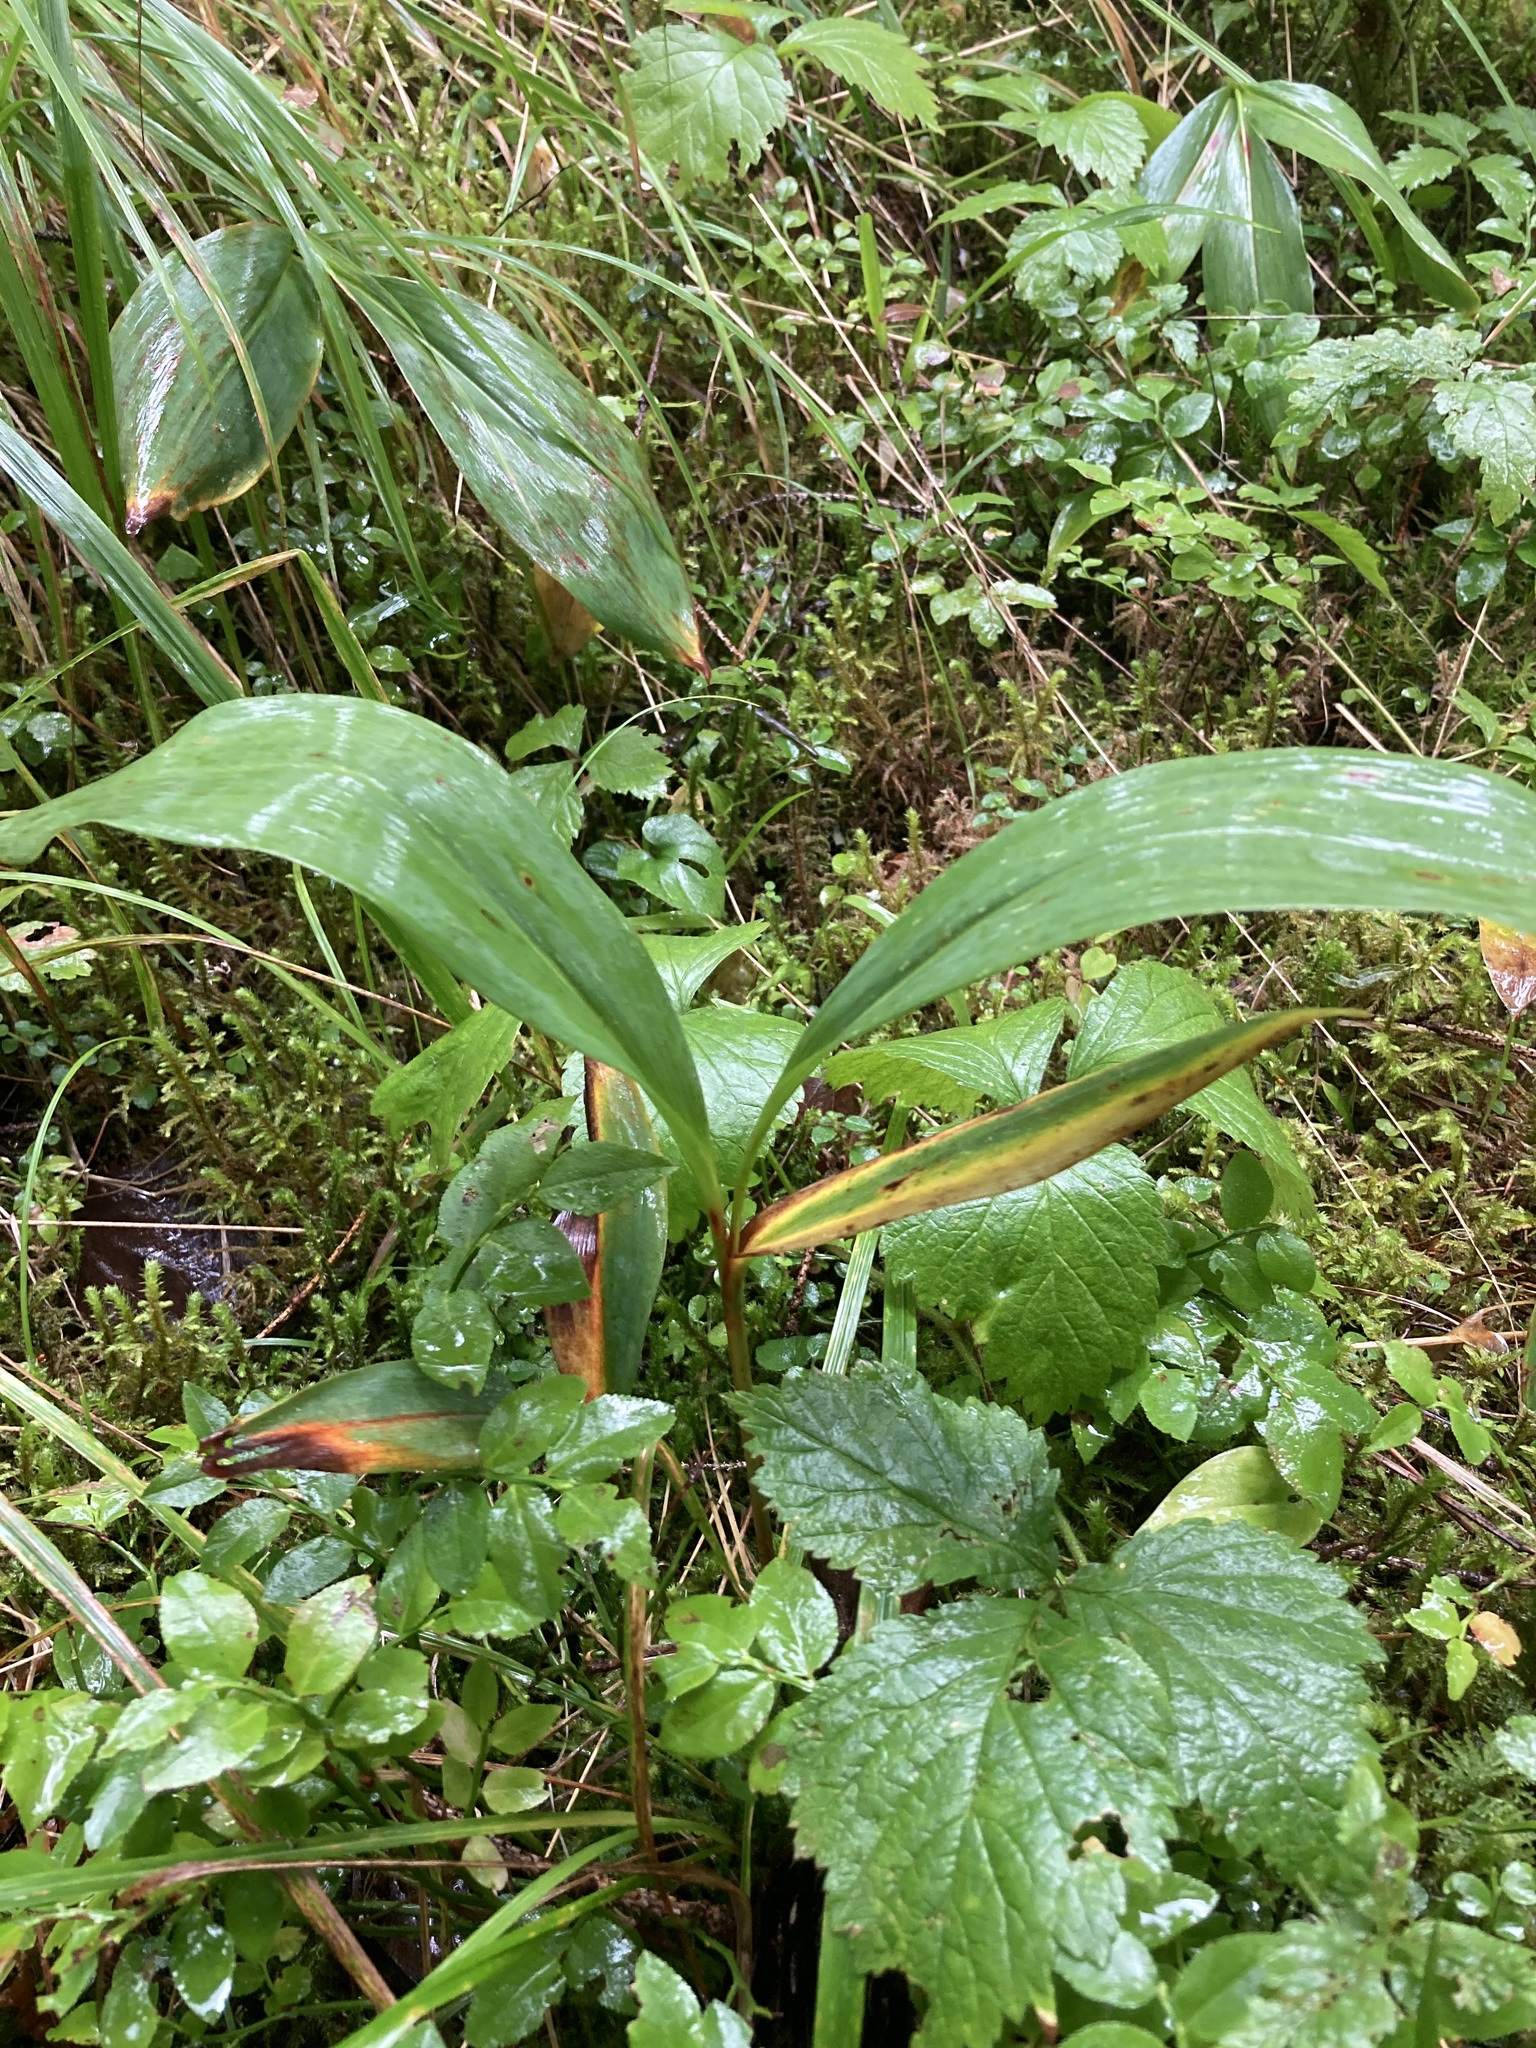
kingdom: Plantae
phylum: Tracheophyta
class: Liliopsida
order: Asparagales
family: Asparagaceae
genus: Convallaria
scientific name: Convallaria majalis
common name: Lily-of-the-valley
